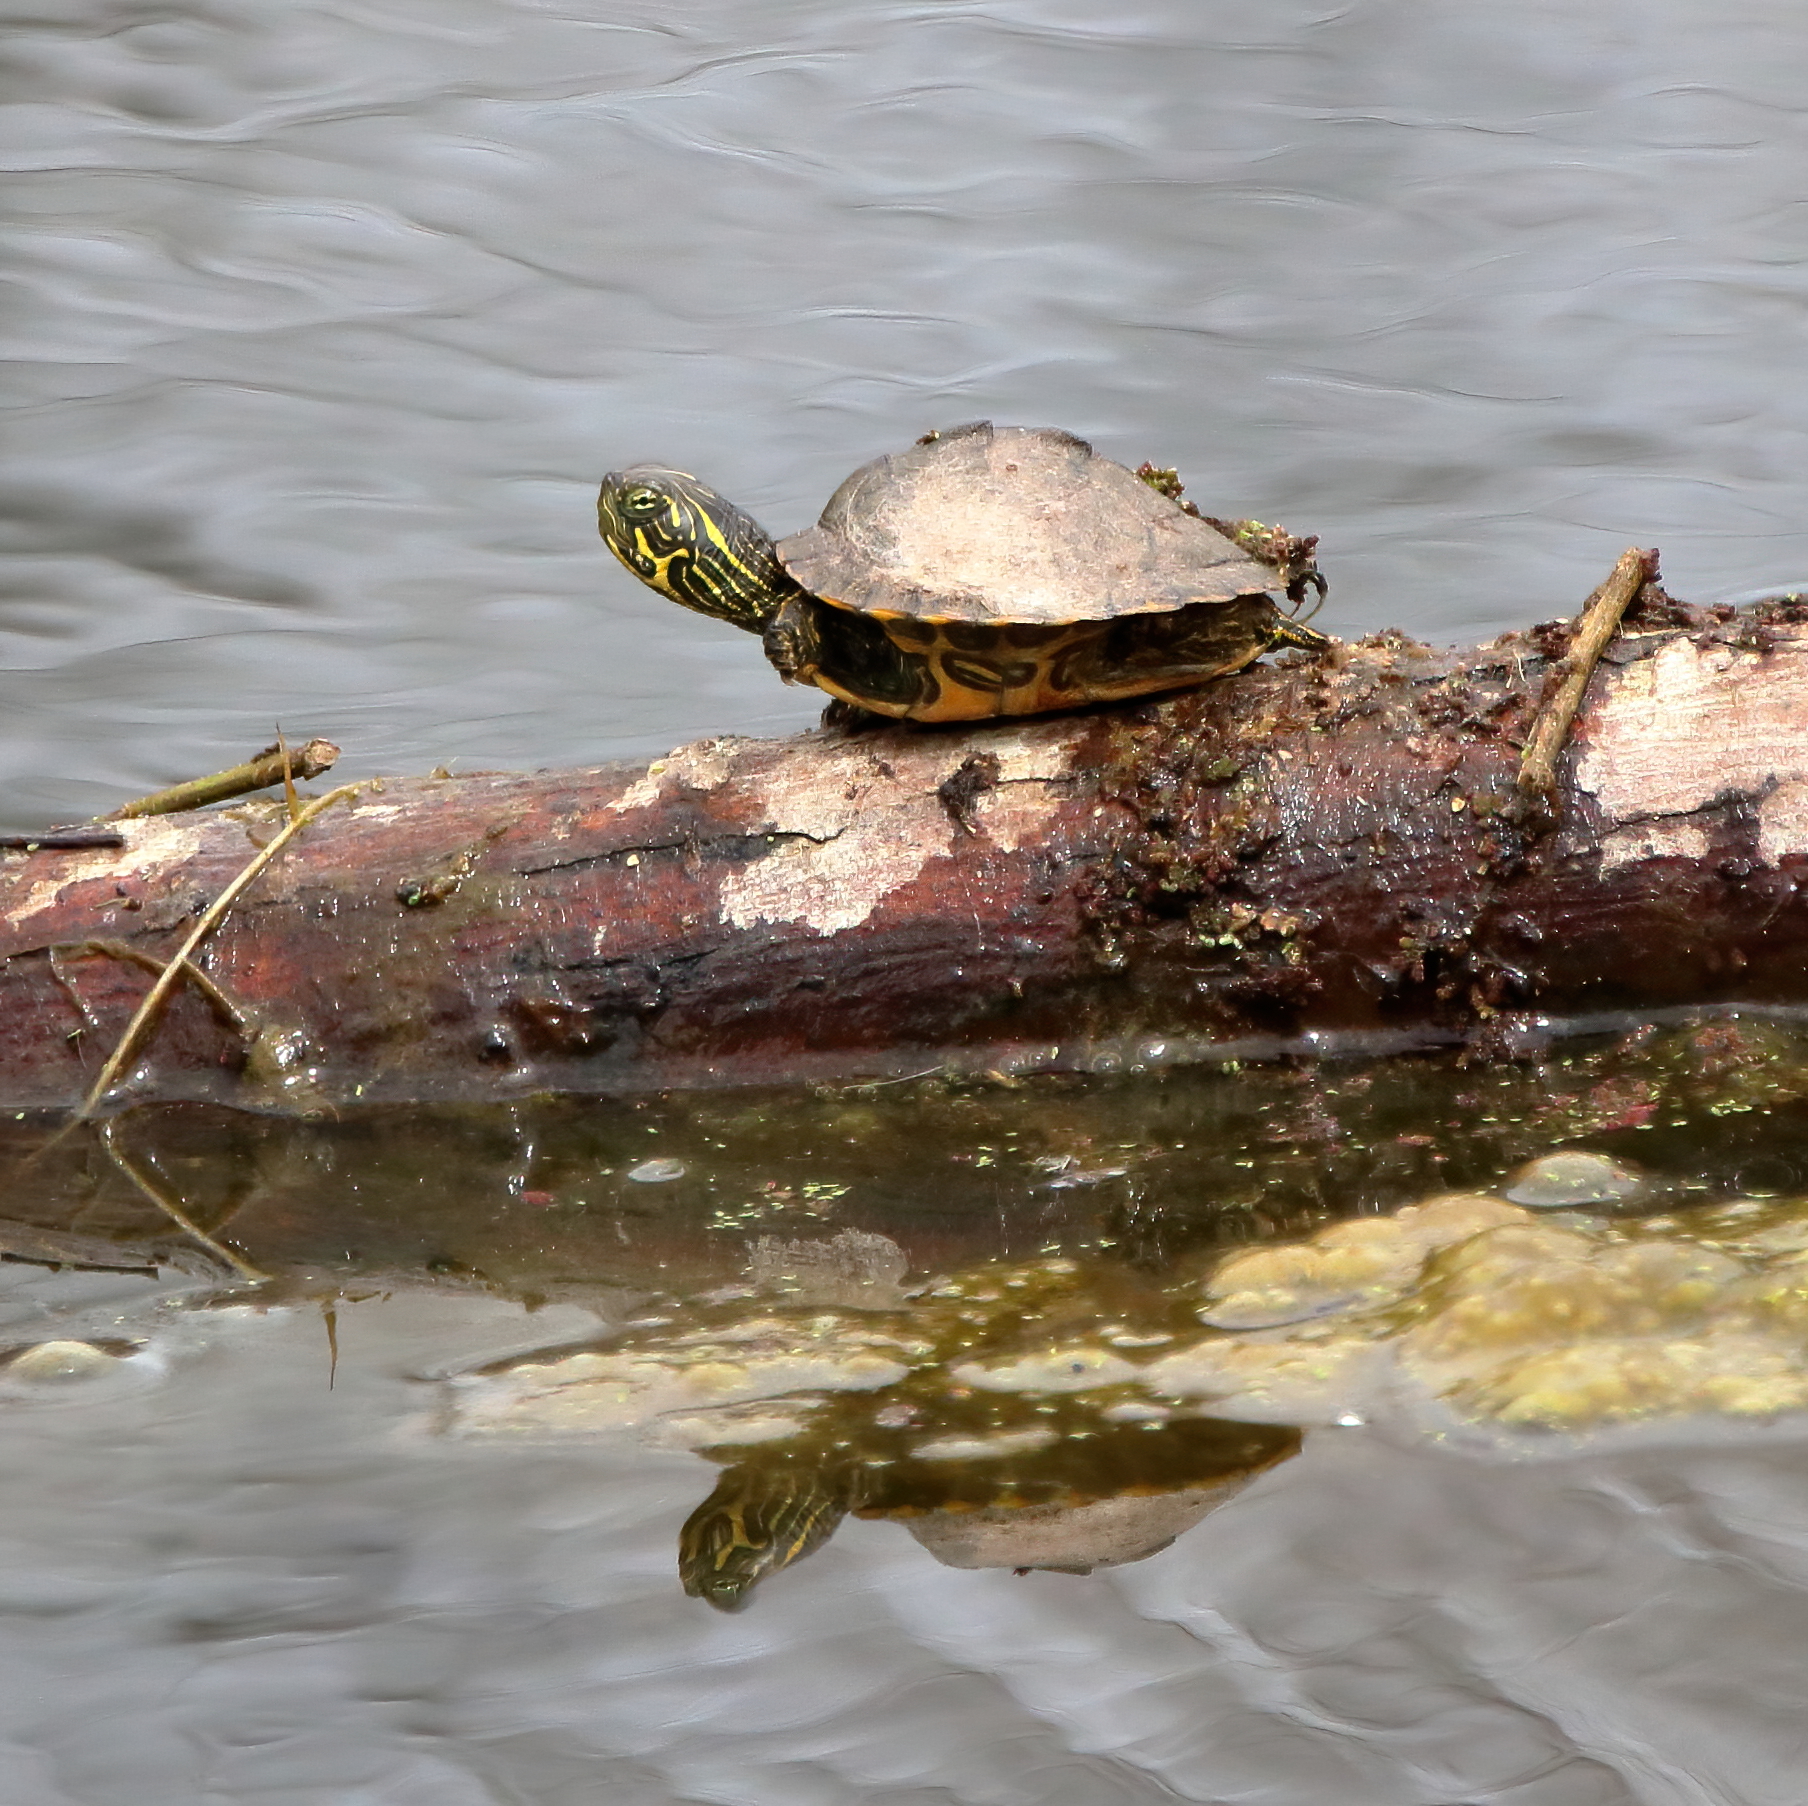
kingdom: Animalia
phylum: Chordata
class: Testudines
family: Emydidae
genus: Pseudemys
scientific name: Pseudemys texana
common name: Texas river cooter
